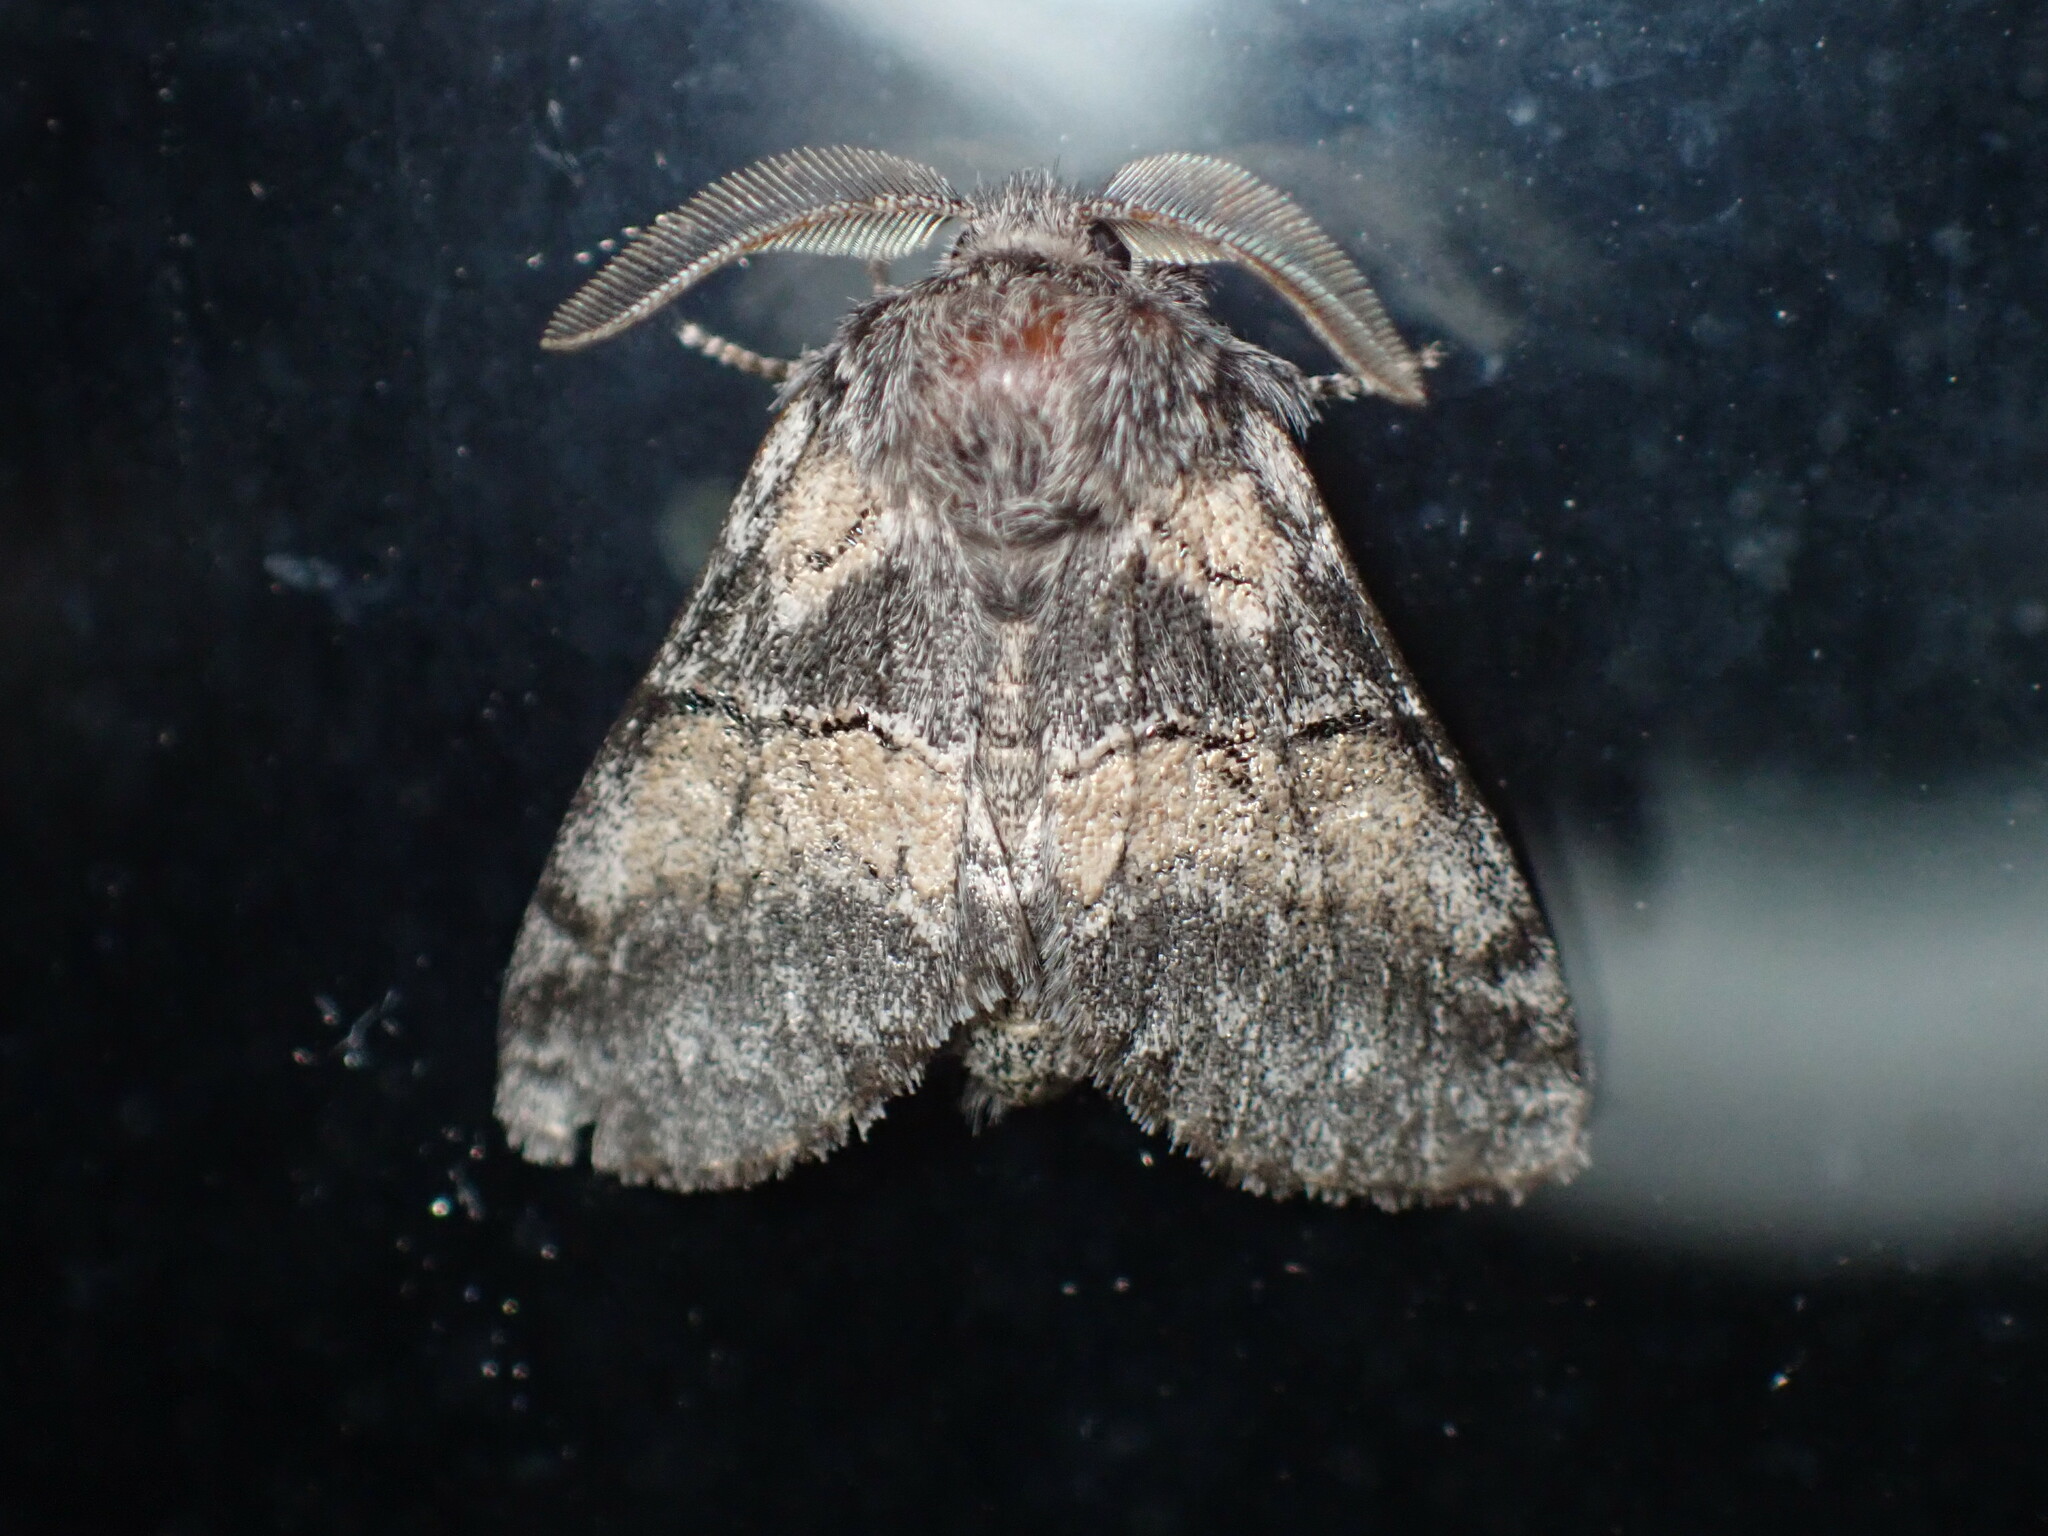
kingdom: Animalia
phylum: Arthropoda
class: Insecta
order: Lepidoptera
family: Notodontidae
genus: Gluphisia
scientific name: Gluphisia septentrionis
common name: Common gluphisia
